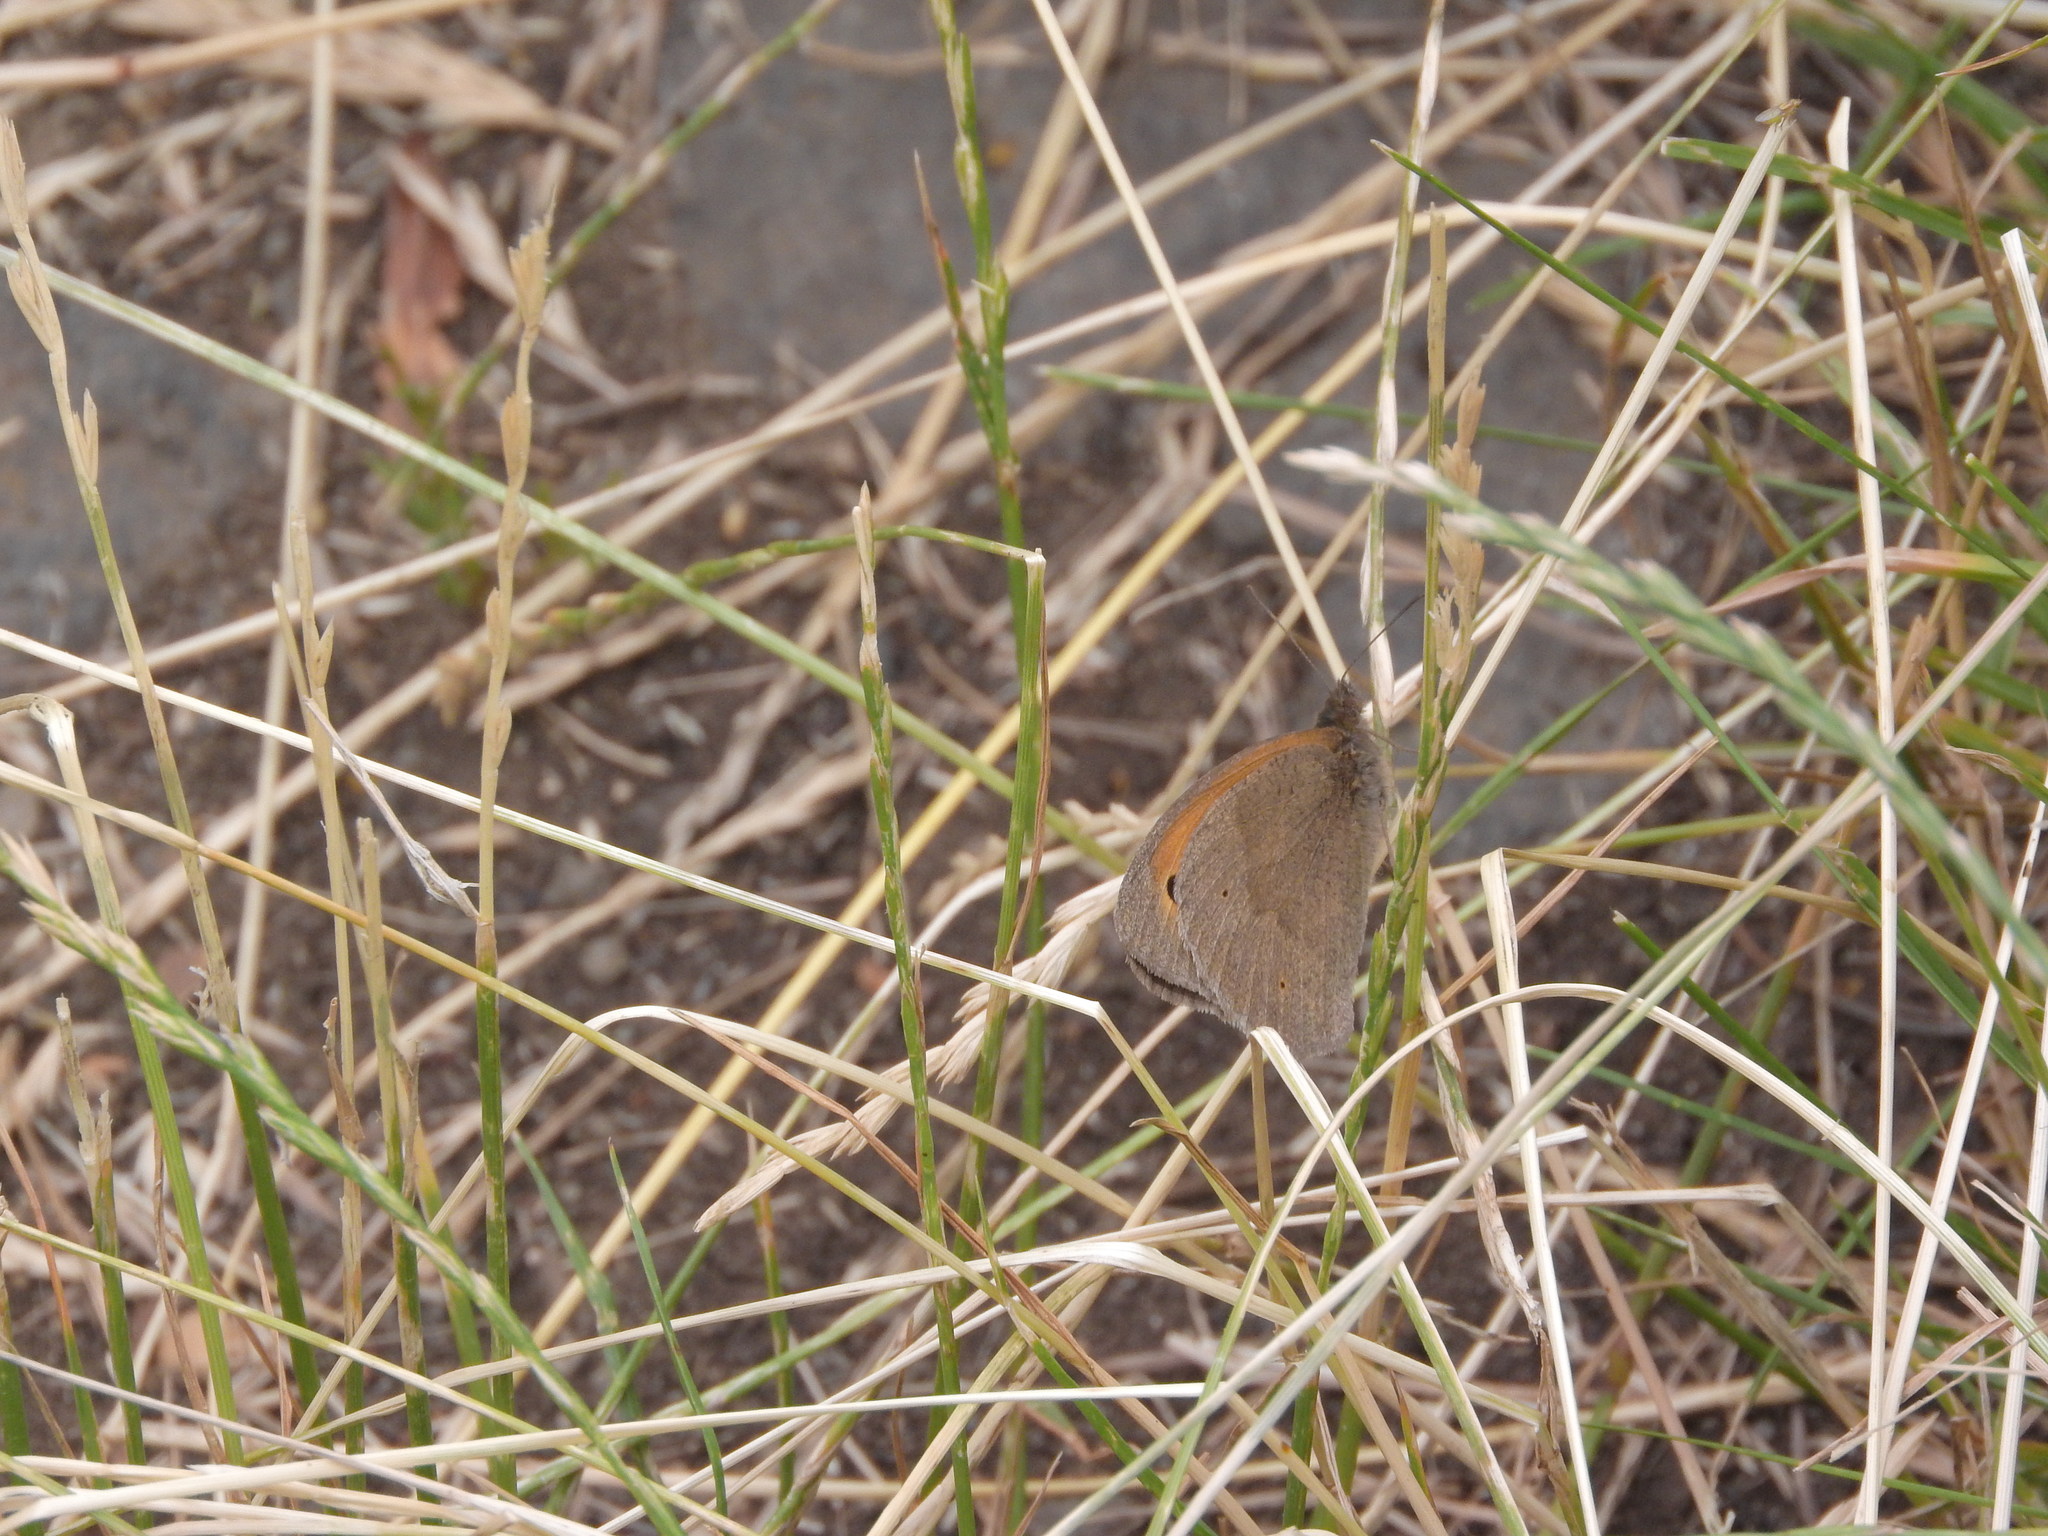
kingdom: Animalia
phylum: Arthropoda
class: Insecta
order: Lepidoptera
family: Nymphalidae
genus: Maniola
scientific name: Maniola jurtina
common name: Meadow brown
